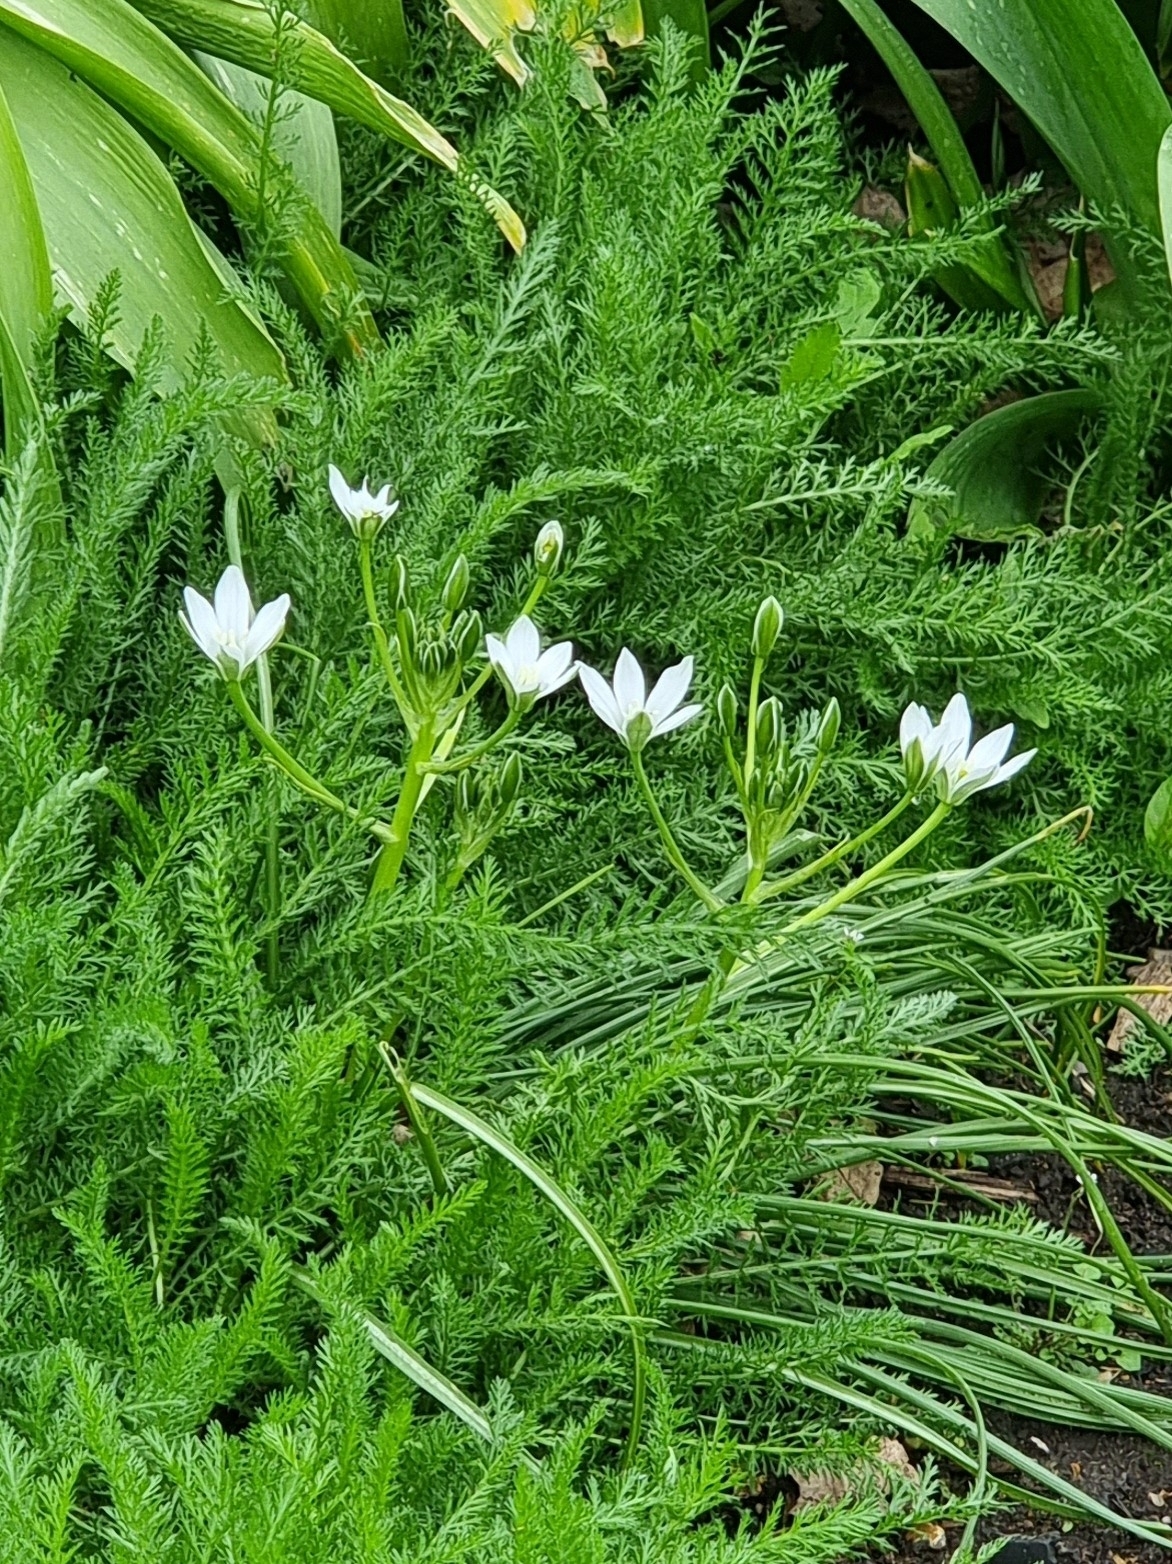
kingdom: Plantae
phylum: Tracheophyta
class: Liliopsida
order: Asparagales
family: Asparagaceae
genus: Ornithogalum
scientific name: Ornithogalum umbellatum
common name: Garden star-of-bethlehem
